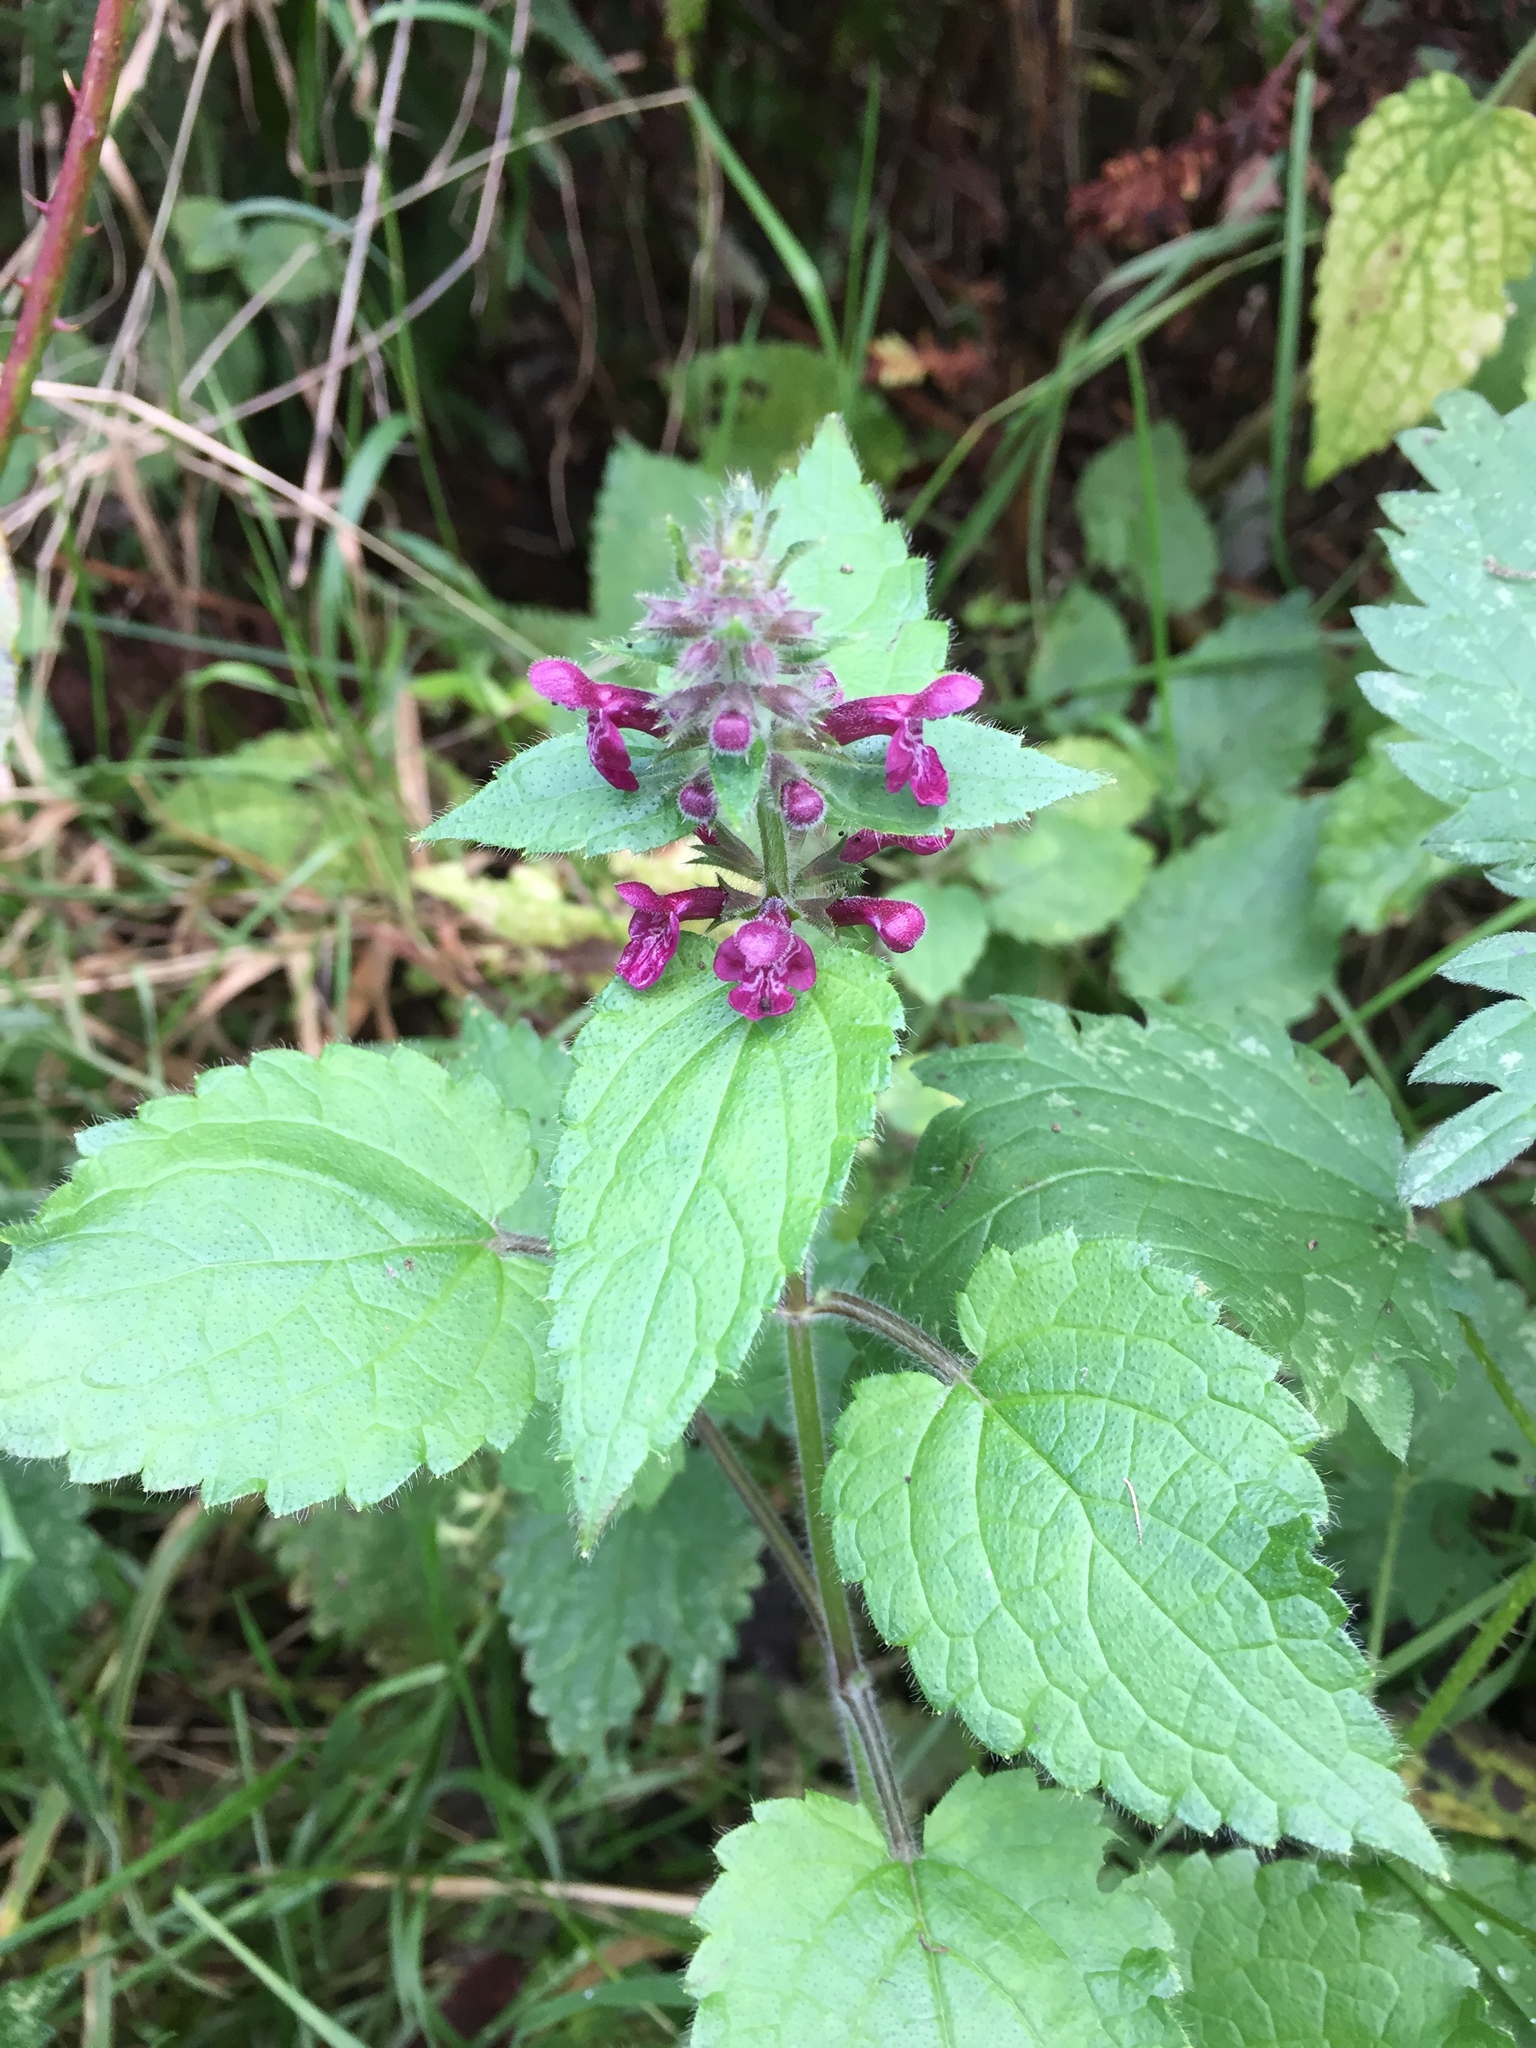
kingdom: Plantae
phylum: Tracheophyta
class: Magnoliopsida
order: Lamiales
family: Lamiaceae
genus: Stachys
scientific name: Stachys sylvatica
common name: Hedge woundwort
